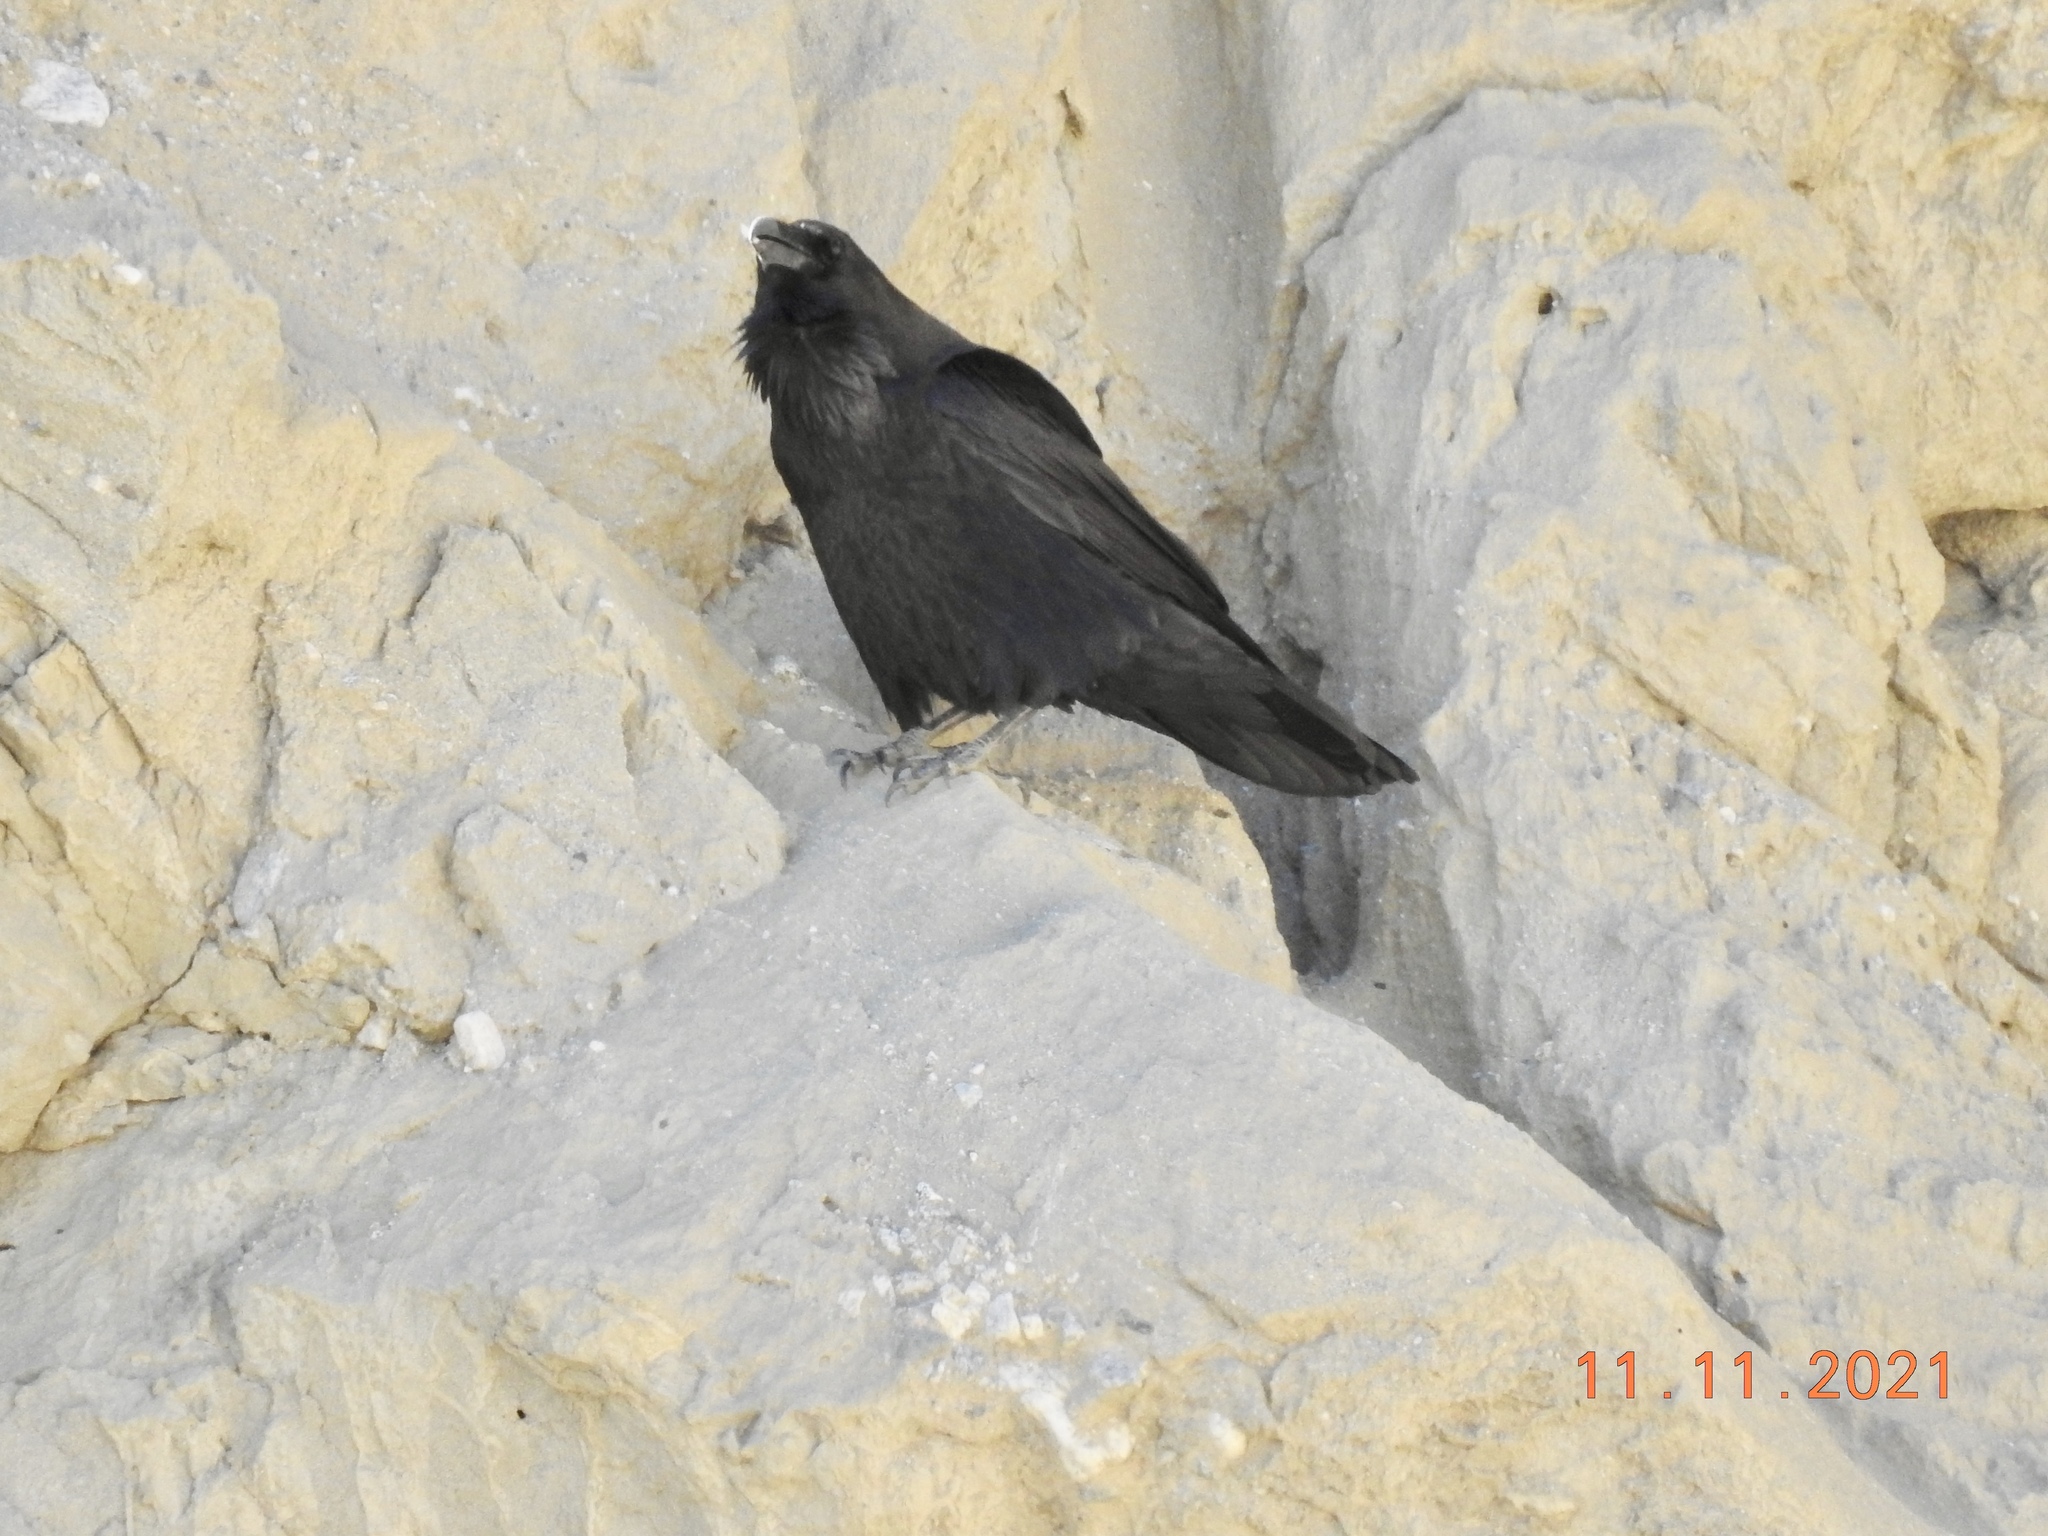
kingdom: Animalia
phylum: Chordata
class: Aves
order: Passeriformes
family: Corvidae
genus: Corvus
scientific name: Corvus corax
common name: Common raven
